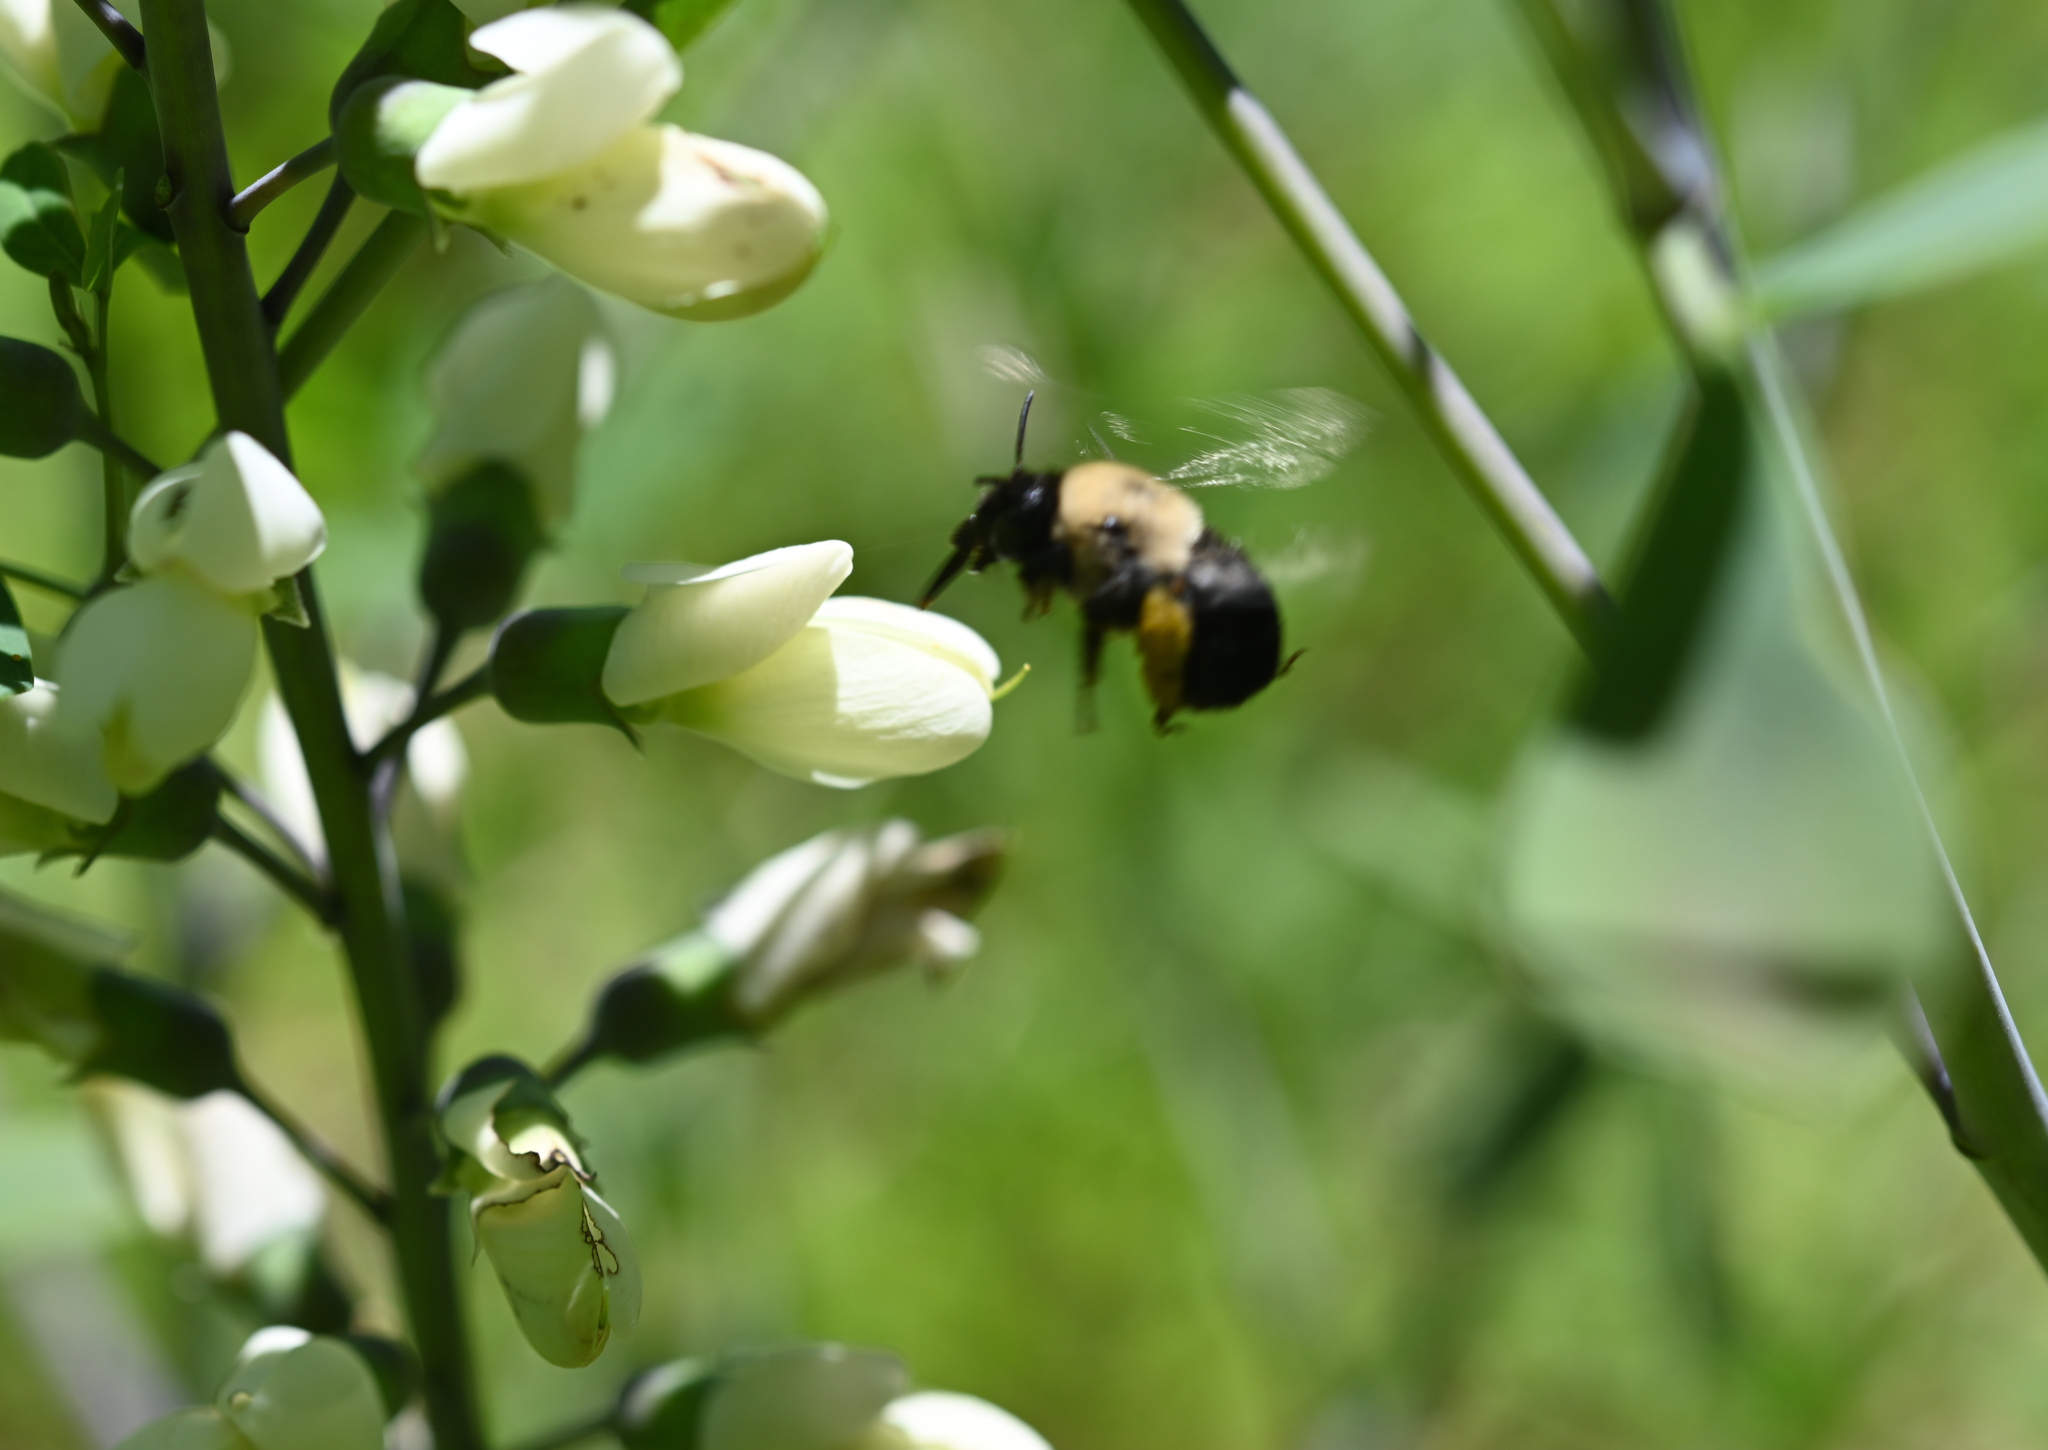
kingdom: Animalia
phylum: Arthropoda
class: Insecta
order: Hymenoptera
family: Apidae
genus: Anthophora
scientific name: Anthophora abrupta
